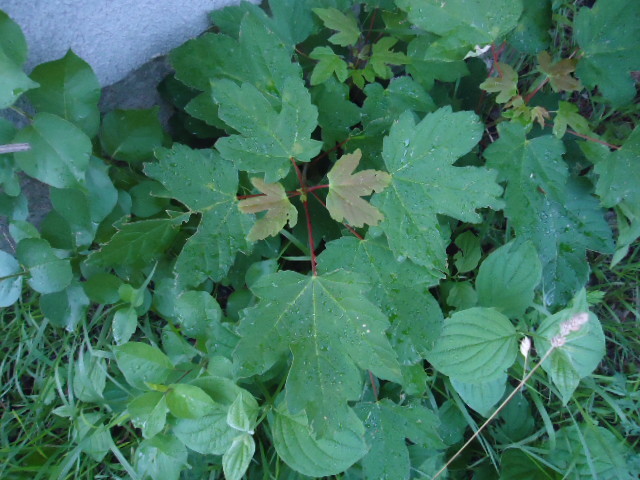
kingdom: Plantae
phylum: Tracheophyta
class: Magnoliopsida
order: Sapindales
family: Sapindaceae
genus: Acer
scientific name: Acer pseudoplatanus
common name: Sycamore
